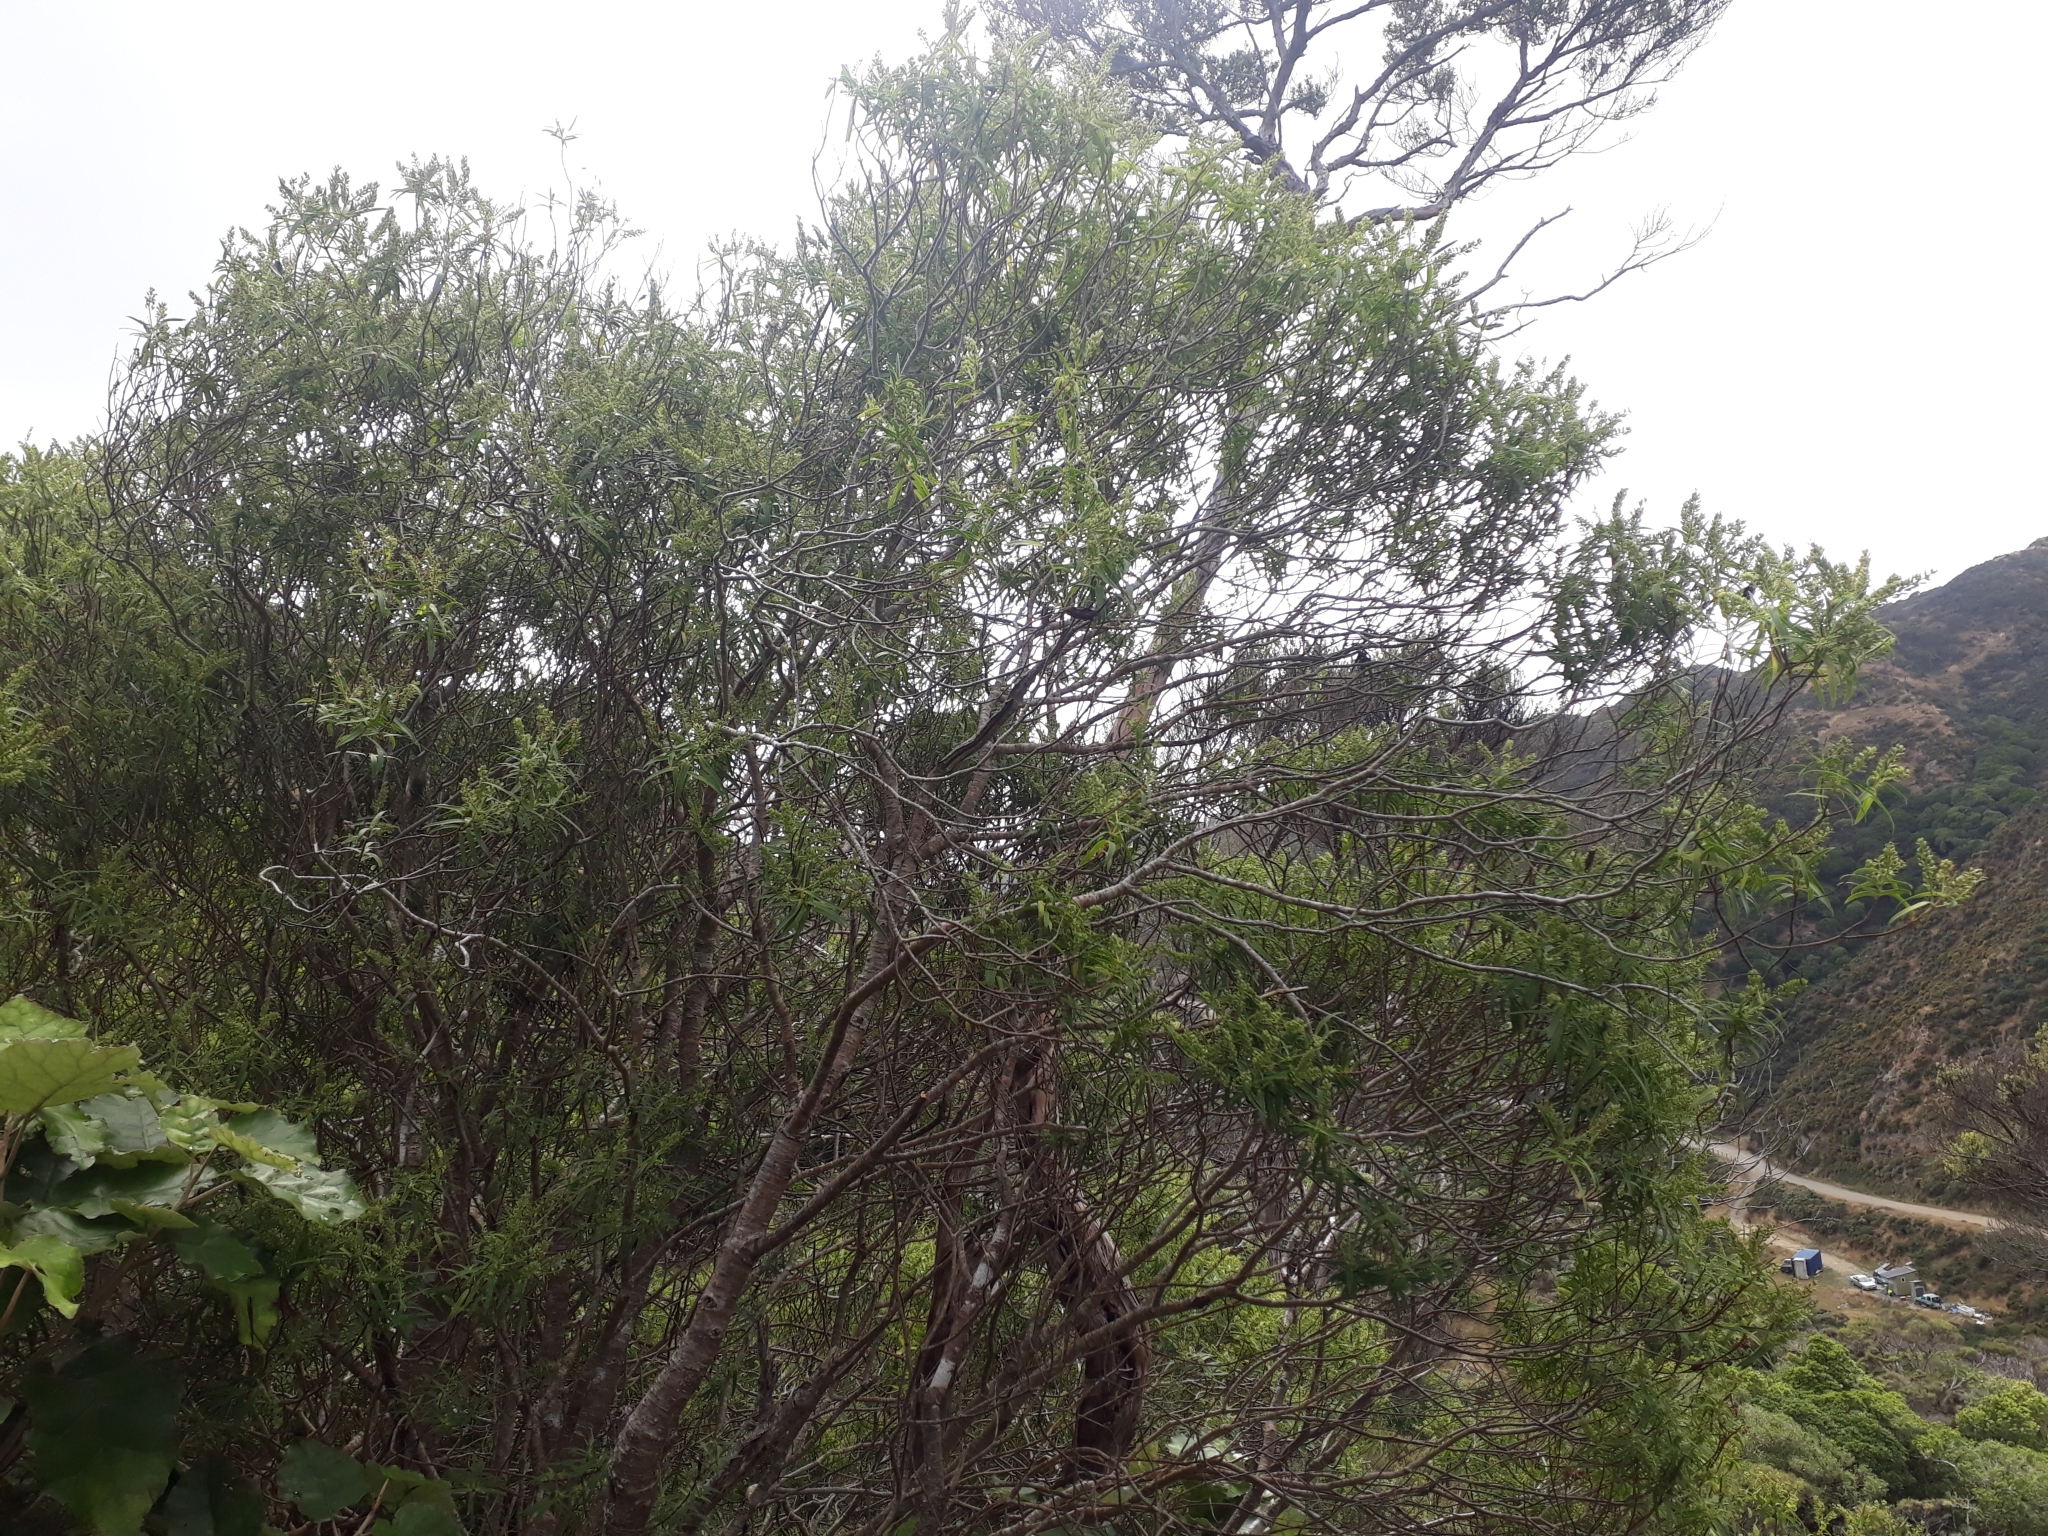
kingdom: Plantae
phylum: Tracheophyta
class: Magnoliopsida
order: Lamiales
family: Plantaginaceae
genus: Veronica
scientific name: Veronica parviflora
